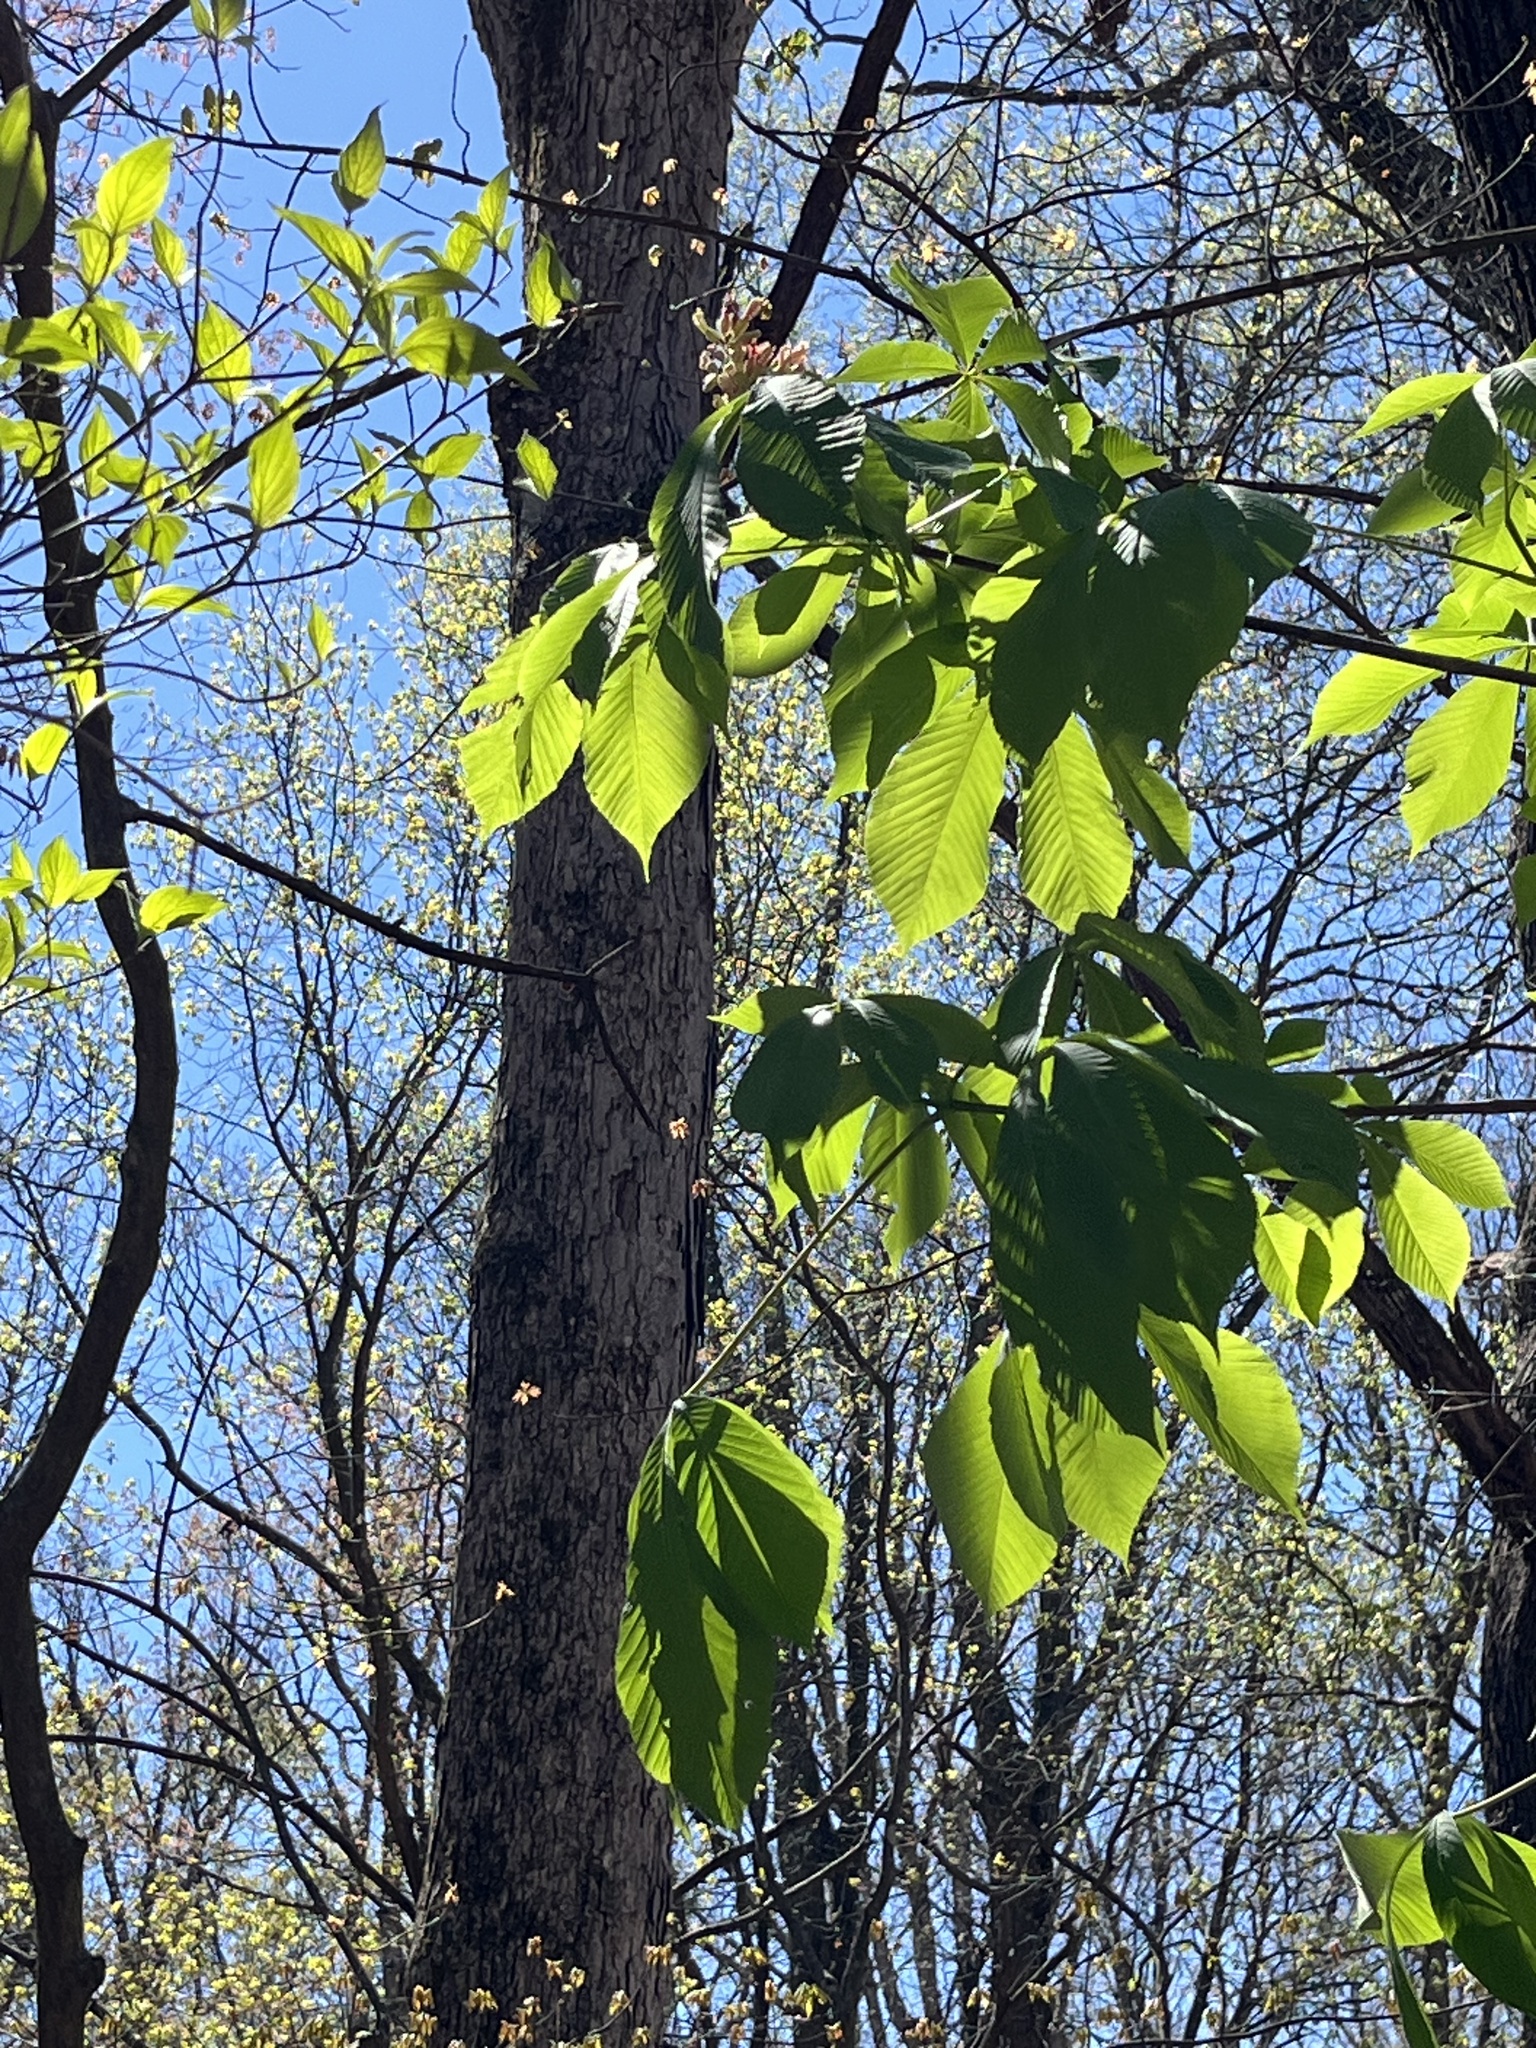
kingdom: Plantae
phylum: Tracheophyta
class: Magnoliopsida
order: Sapindales
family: Sapindaceae
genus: Aesculus
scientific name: Aesculus flava
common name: Yellow buckeye
